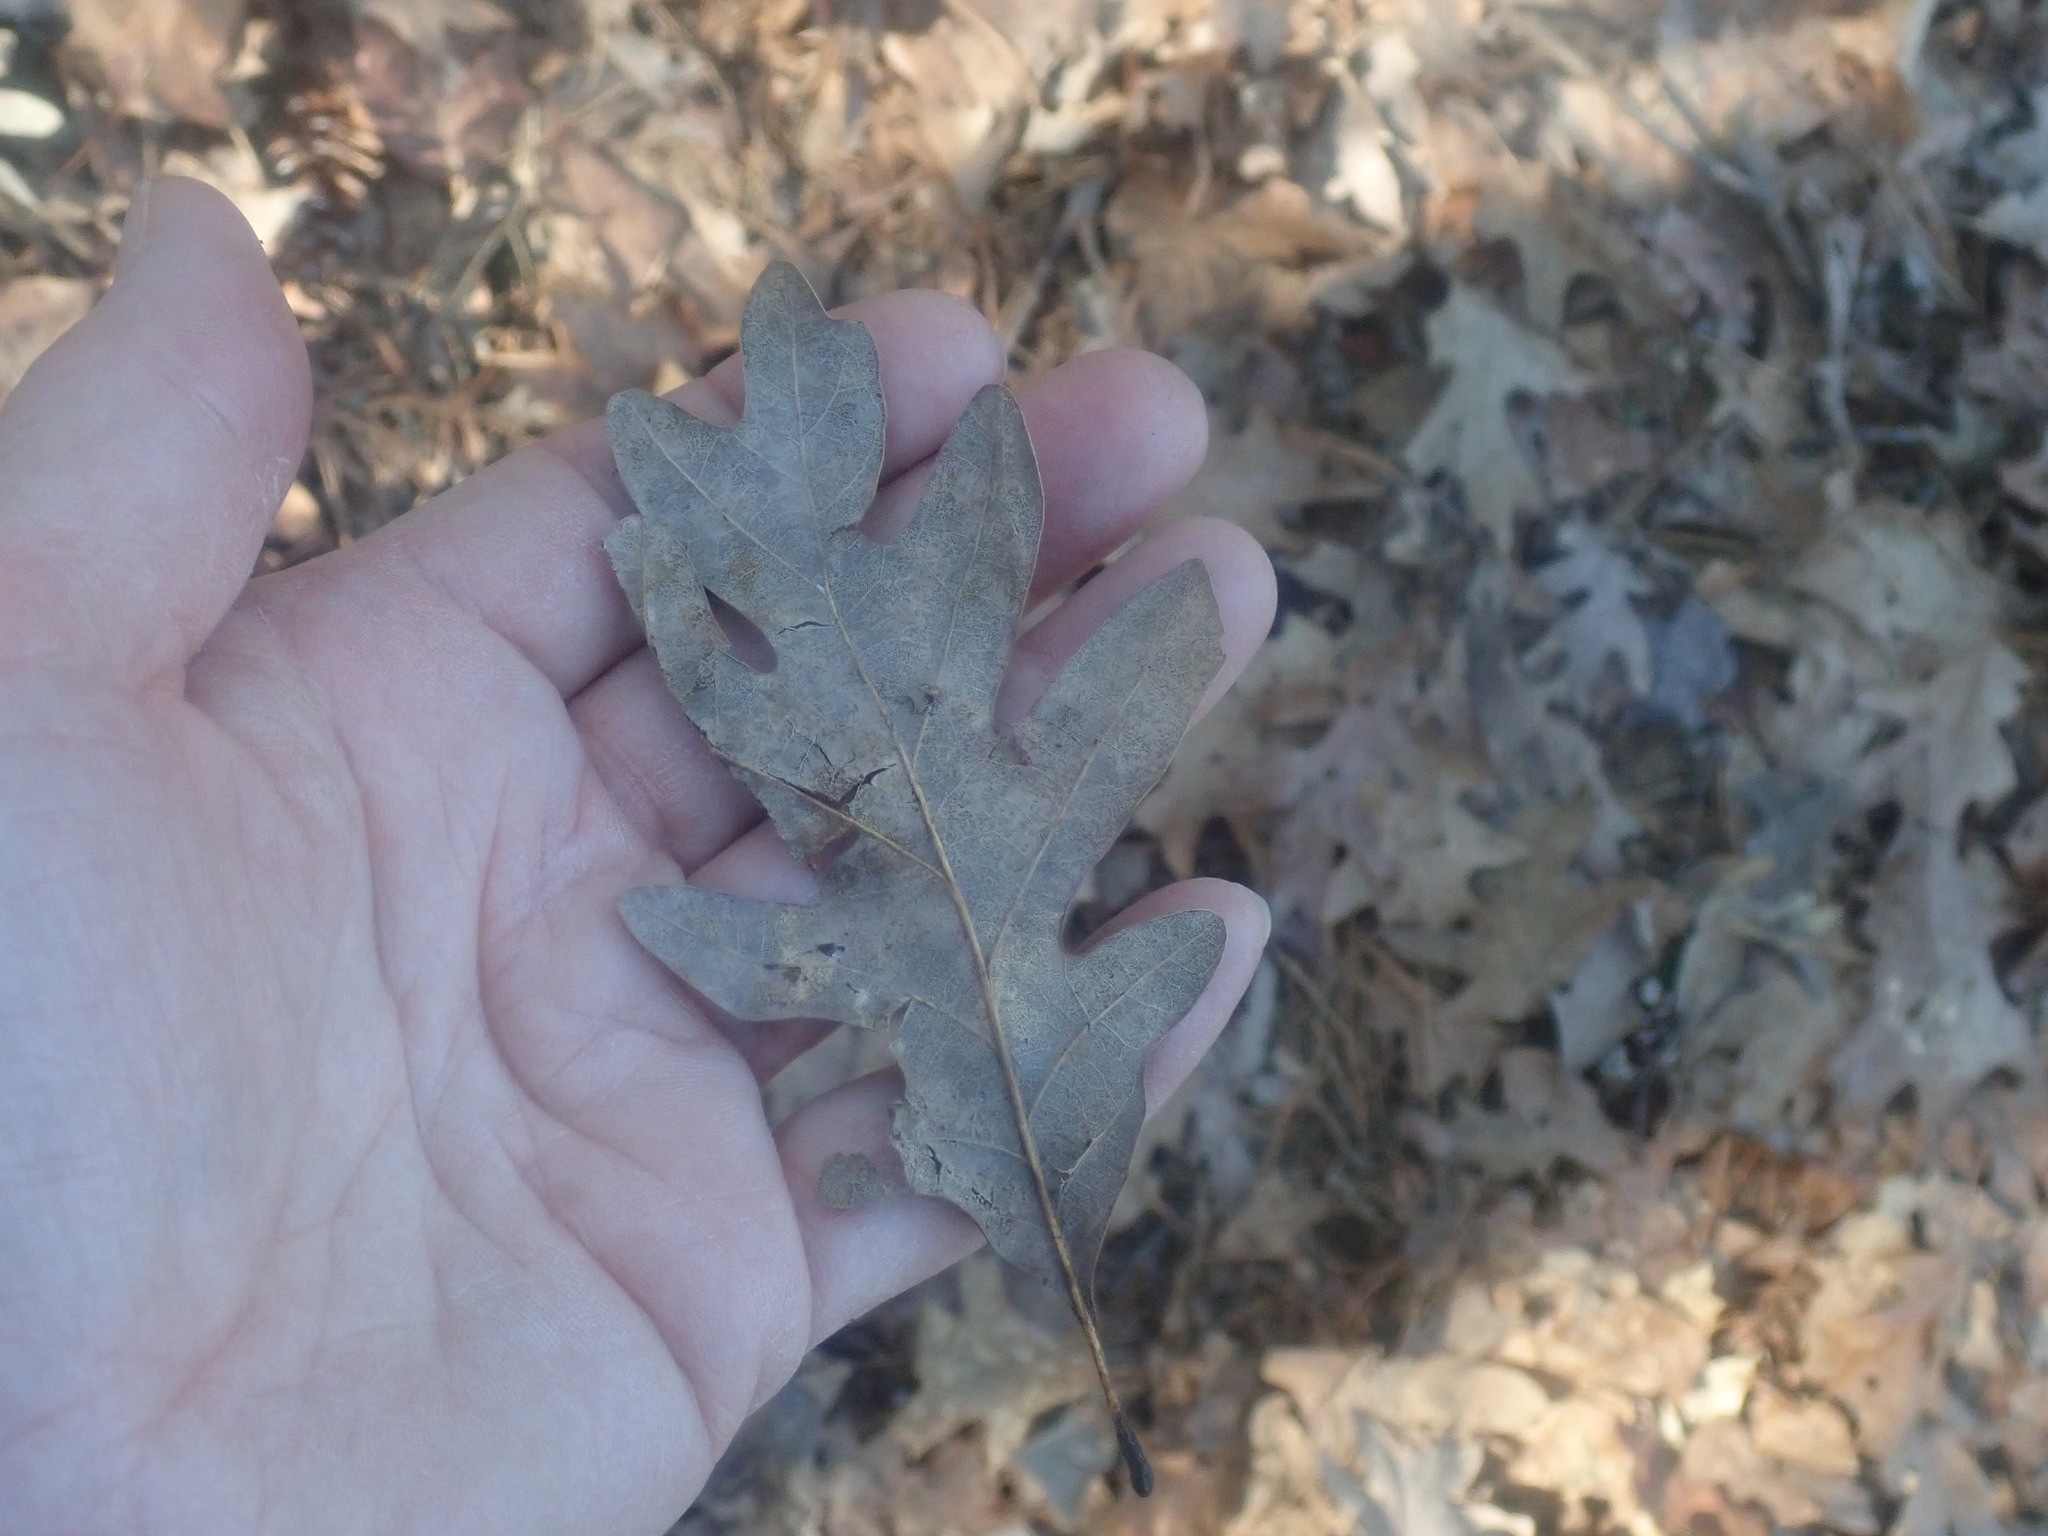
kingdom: Plantae
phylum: Tracheophyta
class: Magnoliopsida
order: Fagales
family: Fagaceae
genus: Quercus
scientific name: Quercus alba
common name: White oak
